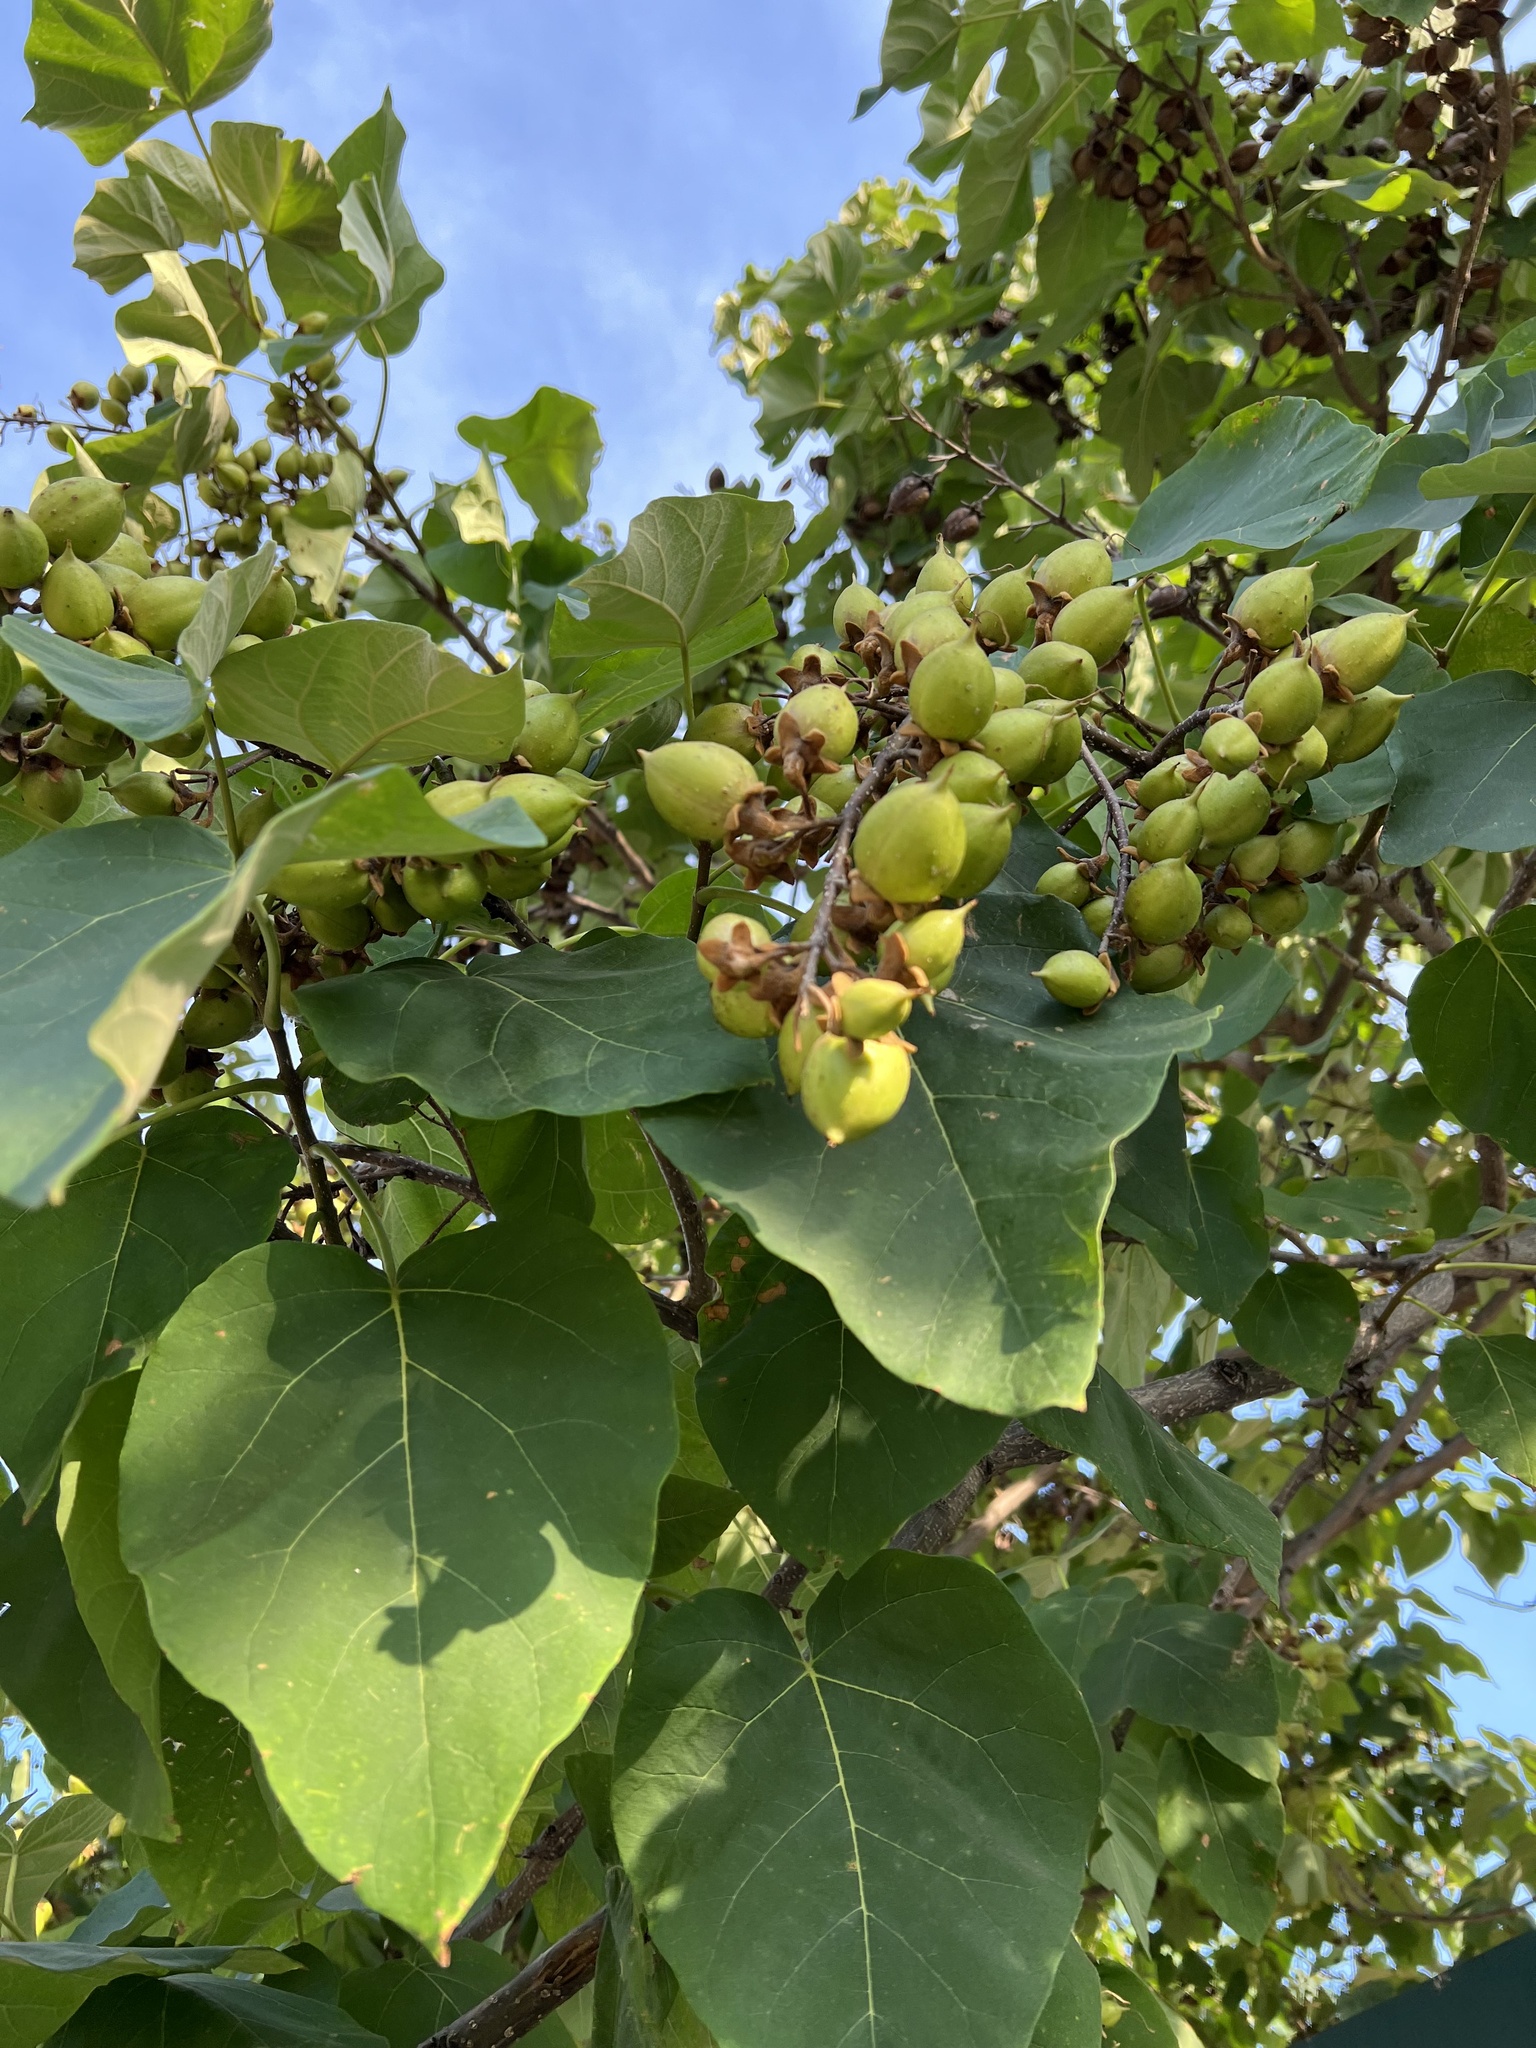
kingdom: Plantae
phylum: Tracheophyta
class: Magnoliopsida
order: Lamiales
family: Paulowniaceae
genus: Paulownia
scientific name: Paulownia tomentosa
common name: Foxglove-tree
